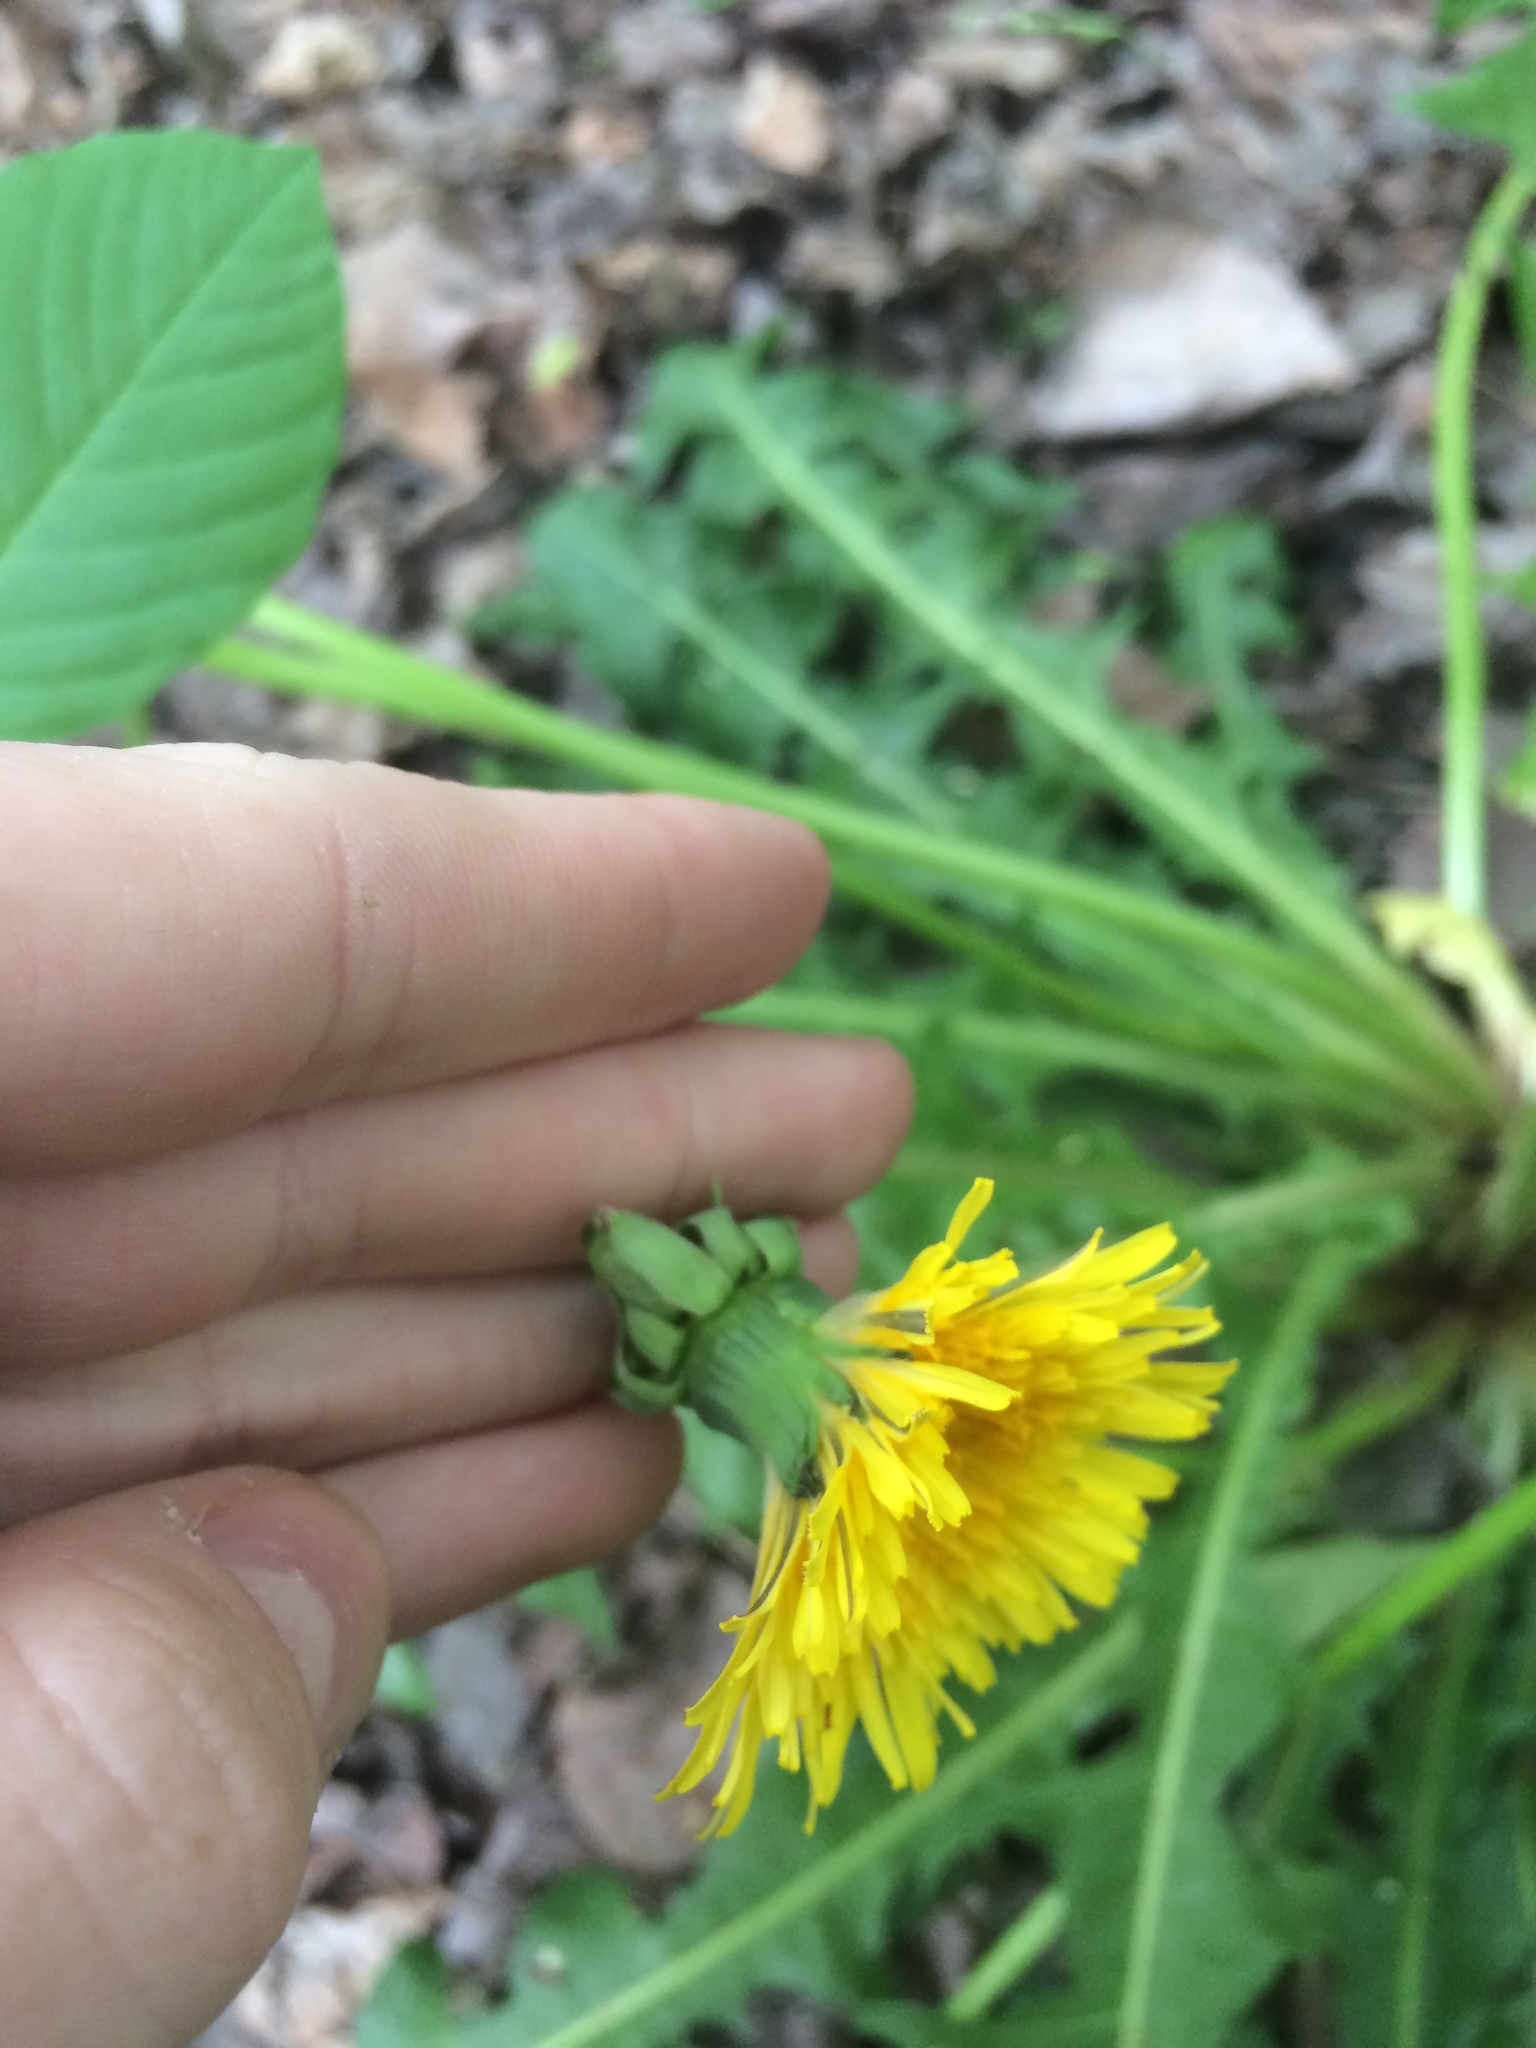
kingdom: Plantae
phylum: Tracheophyta
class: Magnoliopsida
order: Asterales
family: Asteraceae
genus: Taraxacum
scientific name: Taraxacum officinale
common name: Common dandelion
